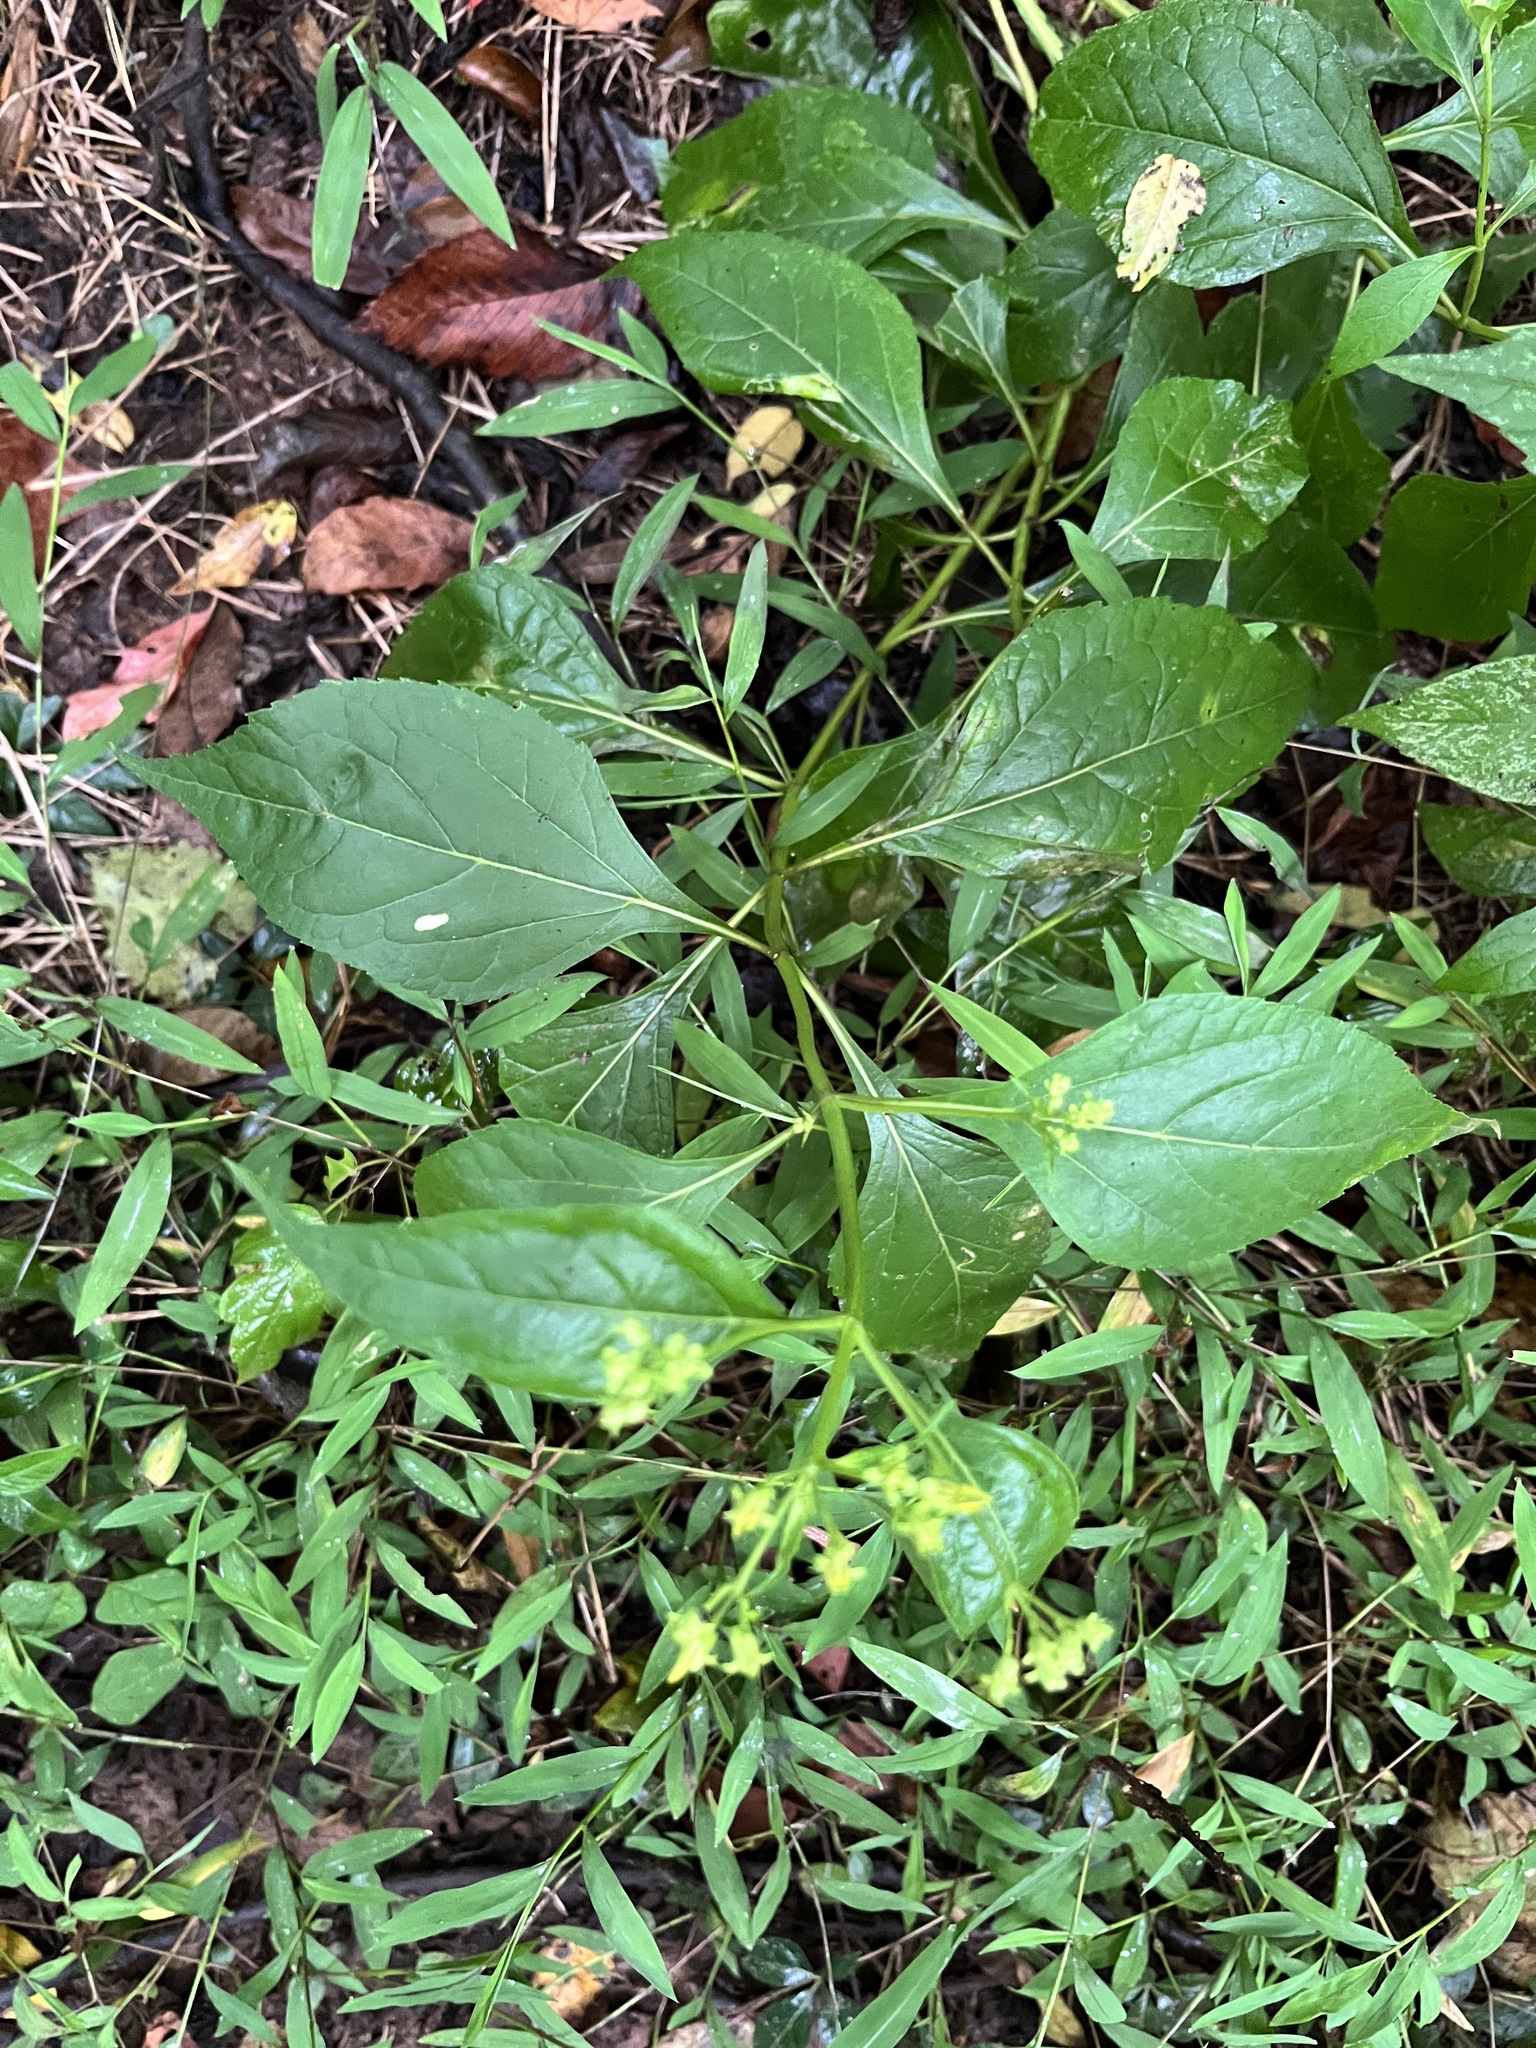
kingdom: Plantae
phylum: Tracheophyta
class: Magnoliopsida
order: Asterales
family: Asteraceae
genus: Verbesina
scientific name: Verbesina occidentalis
